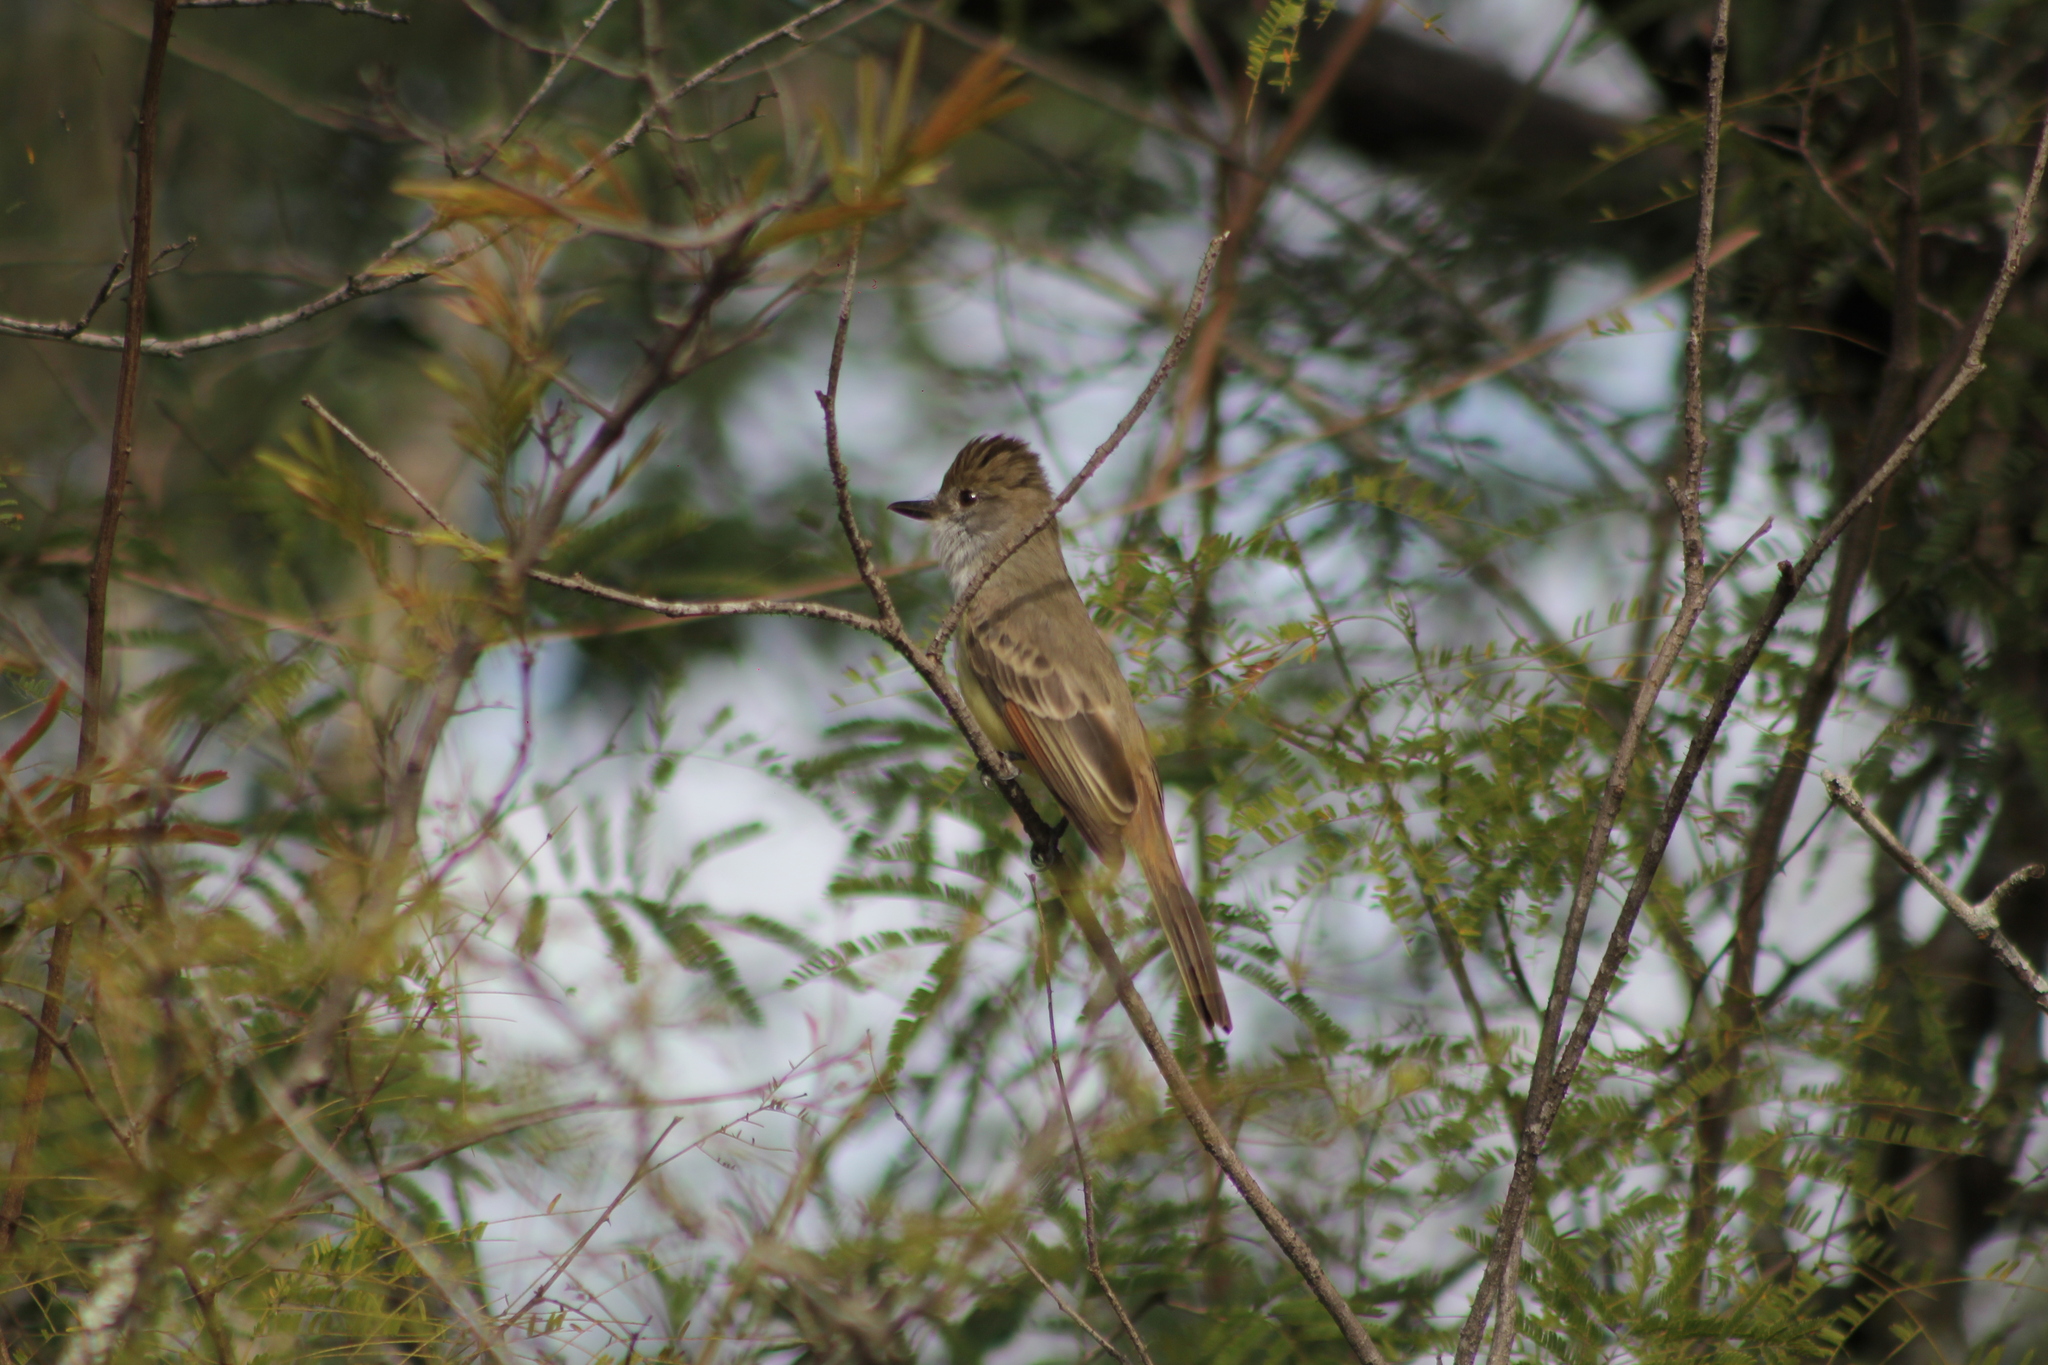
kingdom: Animalia
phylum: Chordata
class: Aves
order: Passeriformes
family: Tyrannidae
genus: Myiarchus
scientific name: Myiarchus tyrannulus
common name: Brown-crested flycatcher
